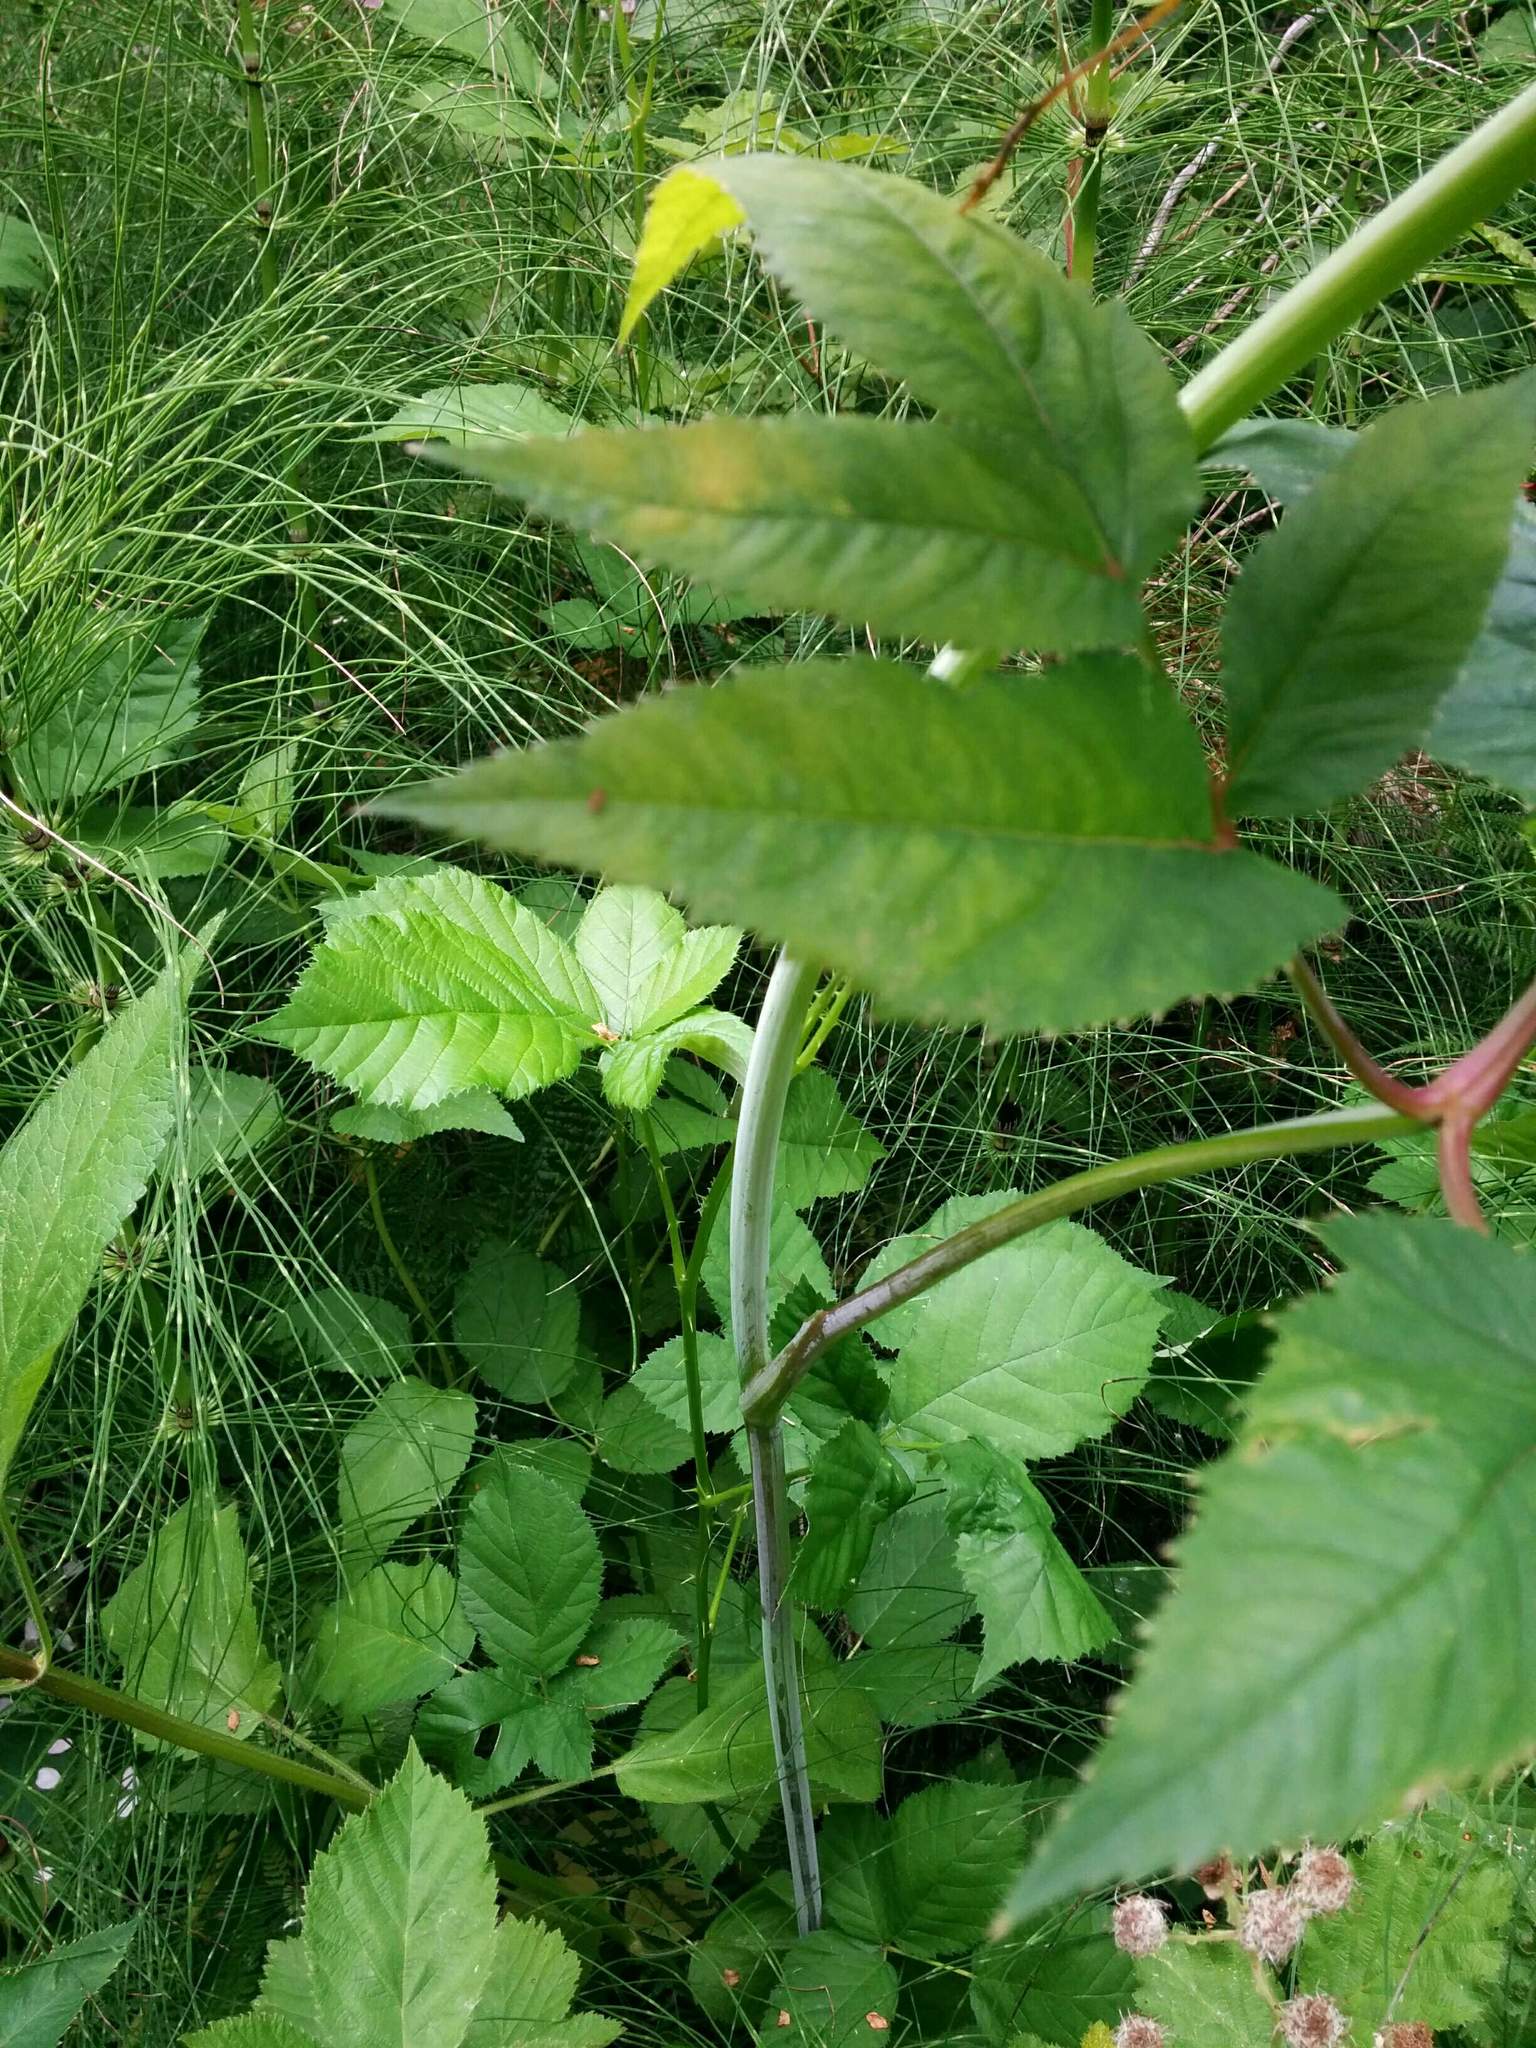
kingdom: Plantae
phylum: Tracheophyta
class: Magnoliopsida
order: Apiales
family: Apiaceae
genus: Angelica
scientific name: Angelica genuflexa
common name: Kneeling angelica
